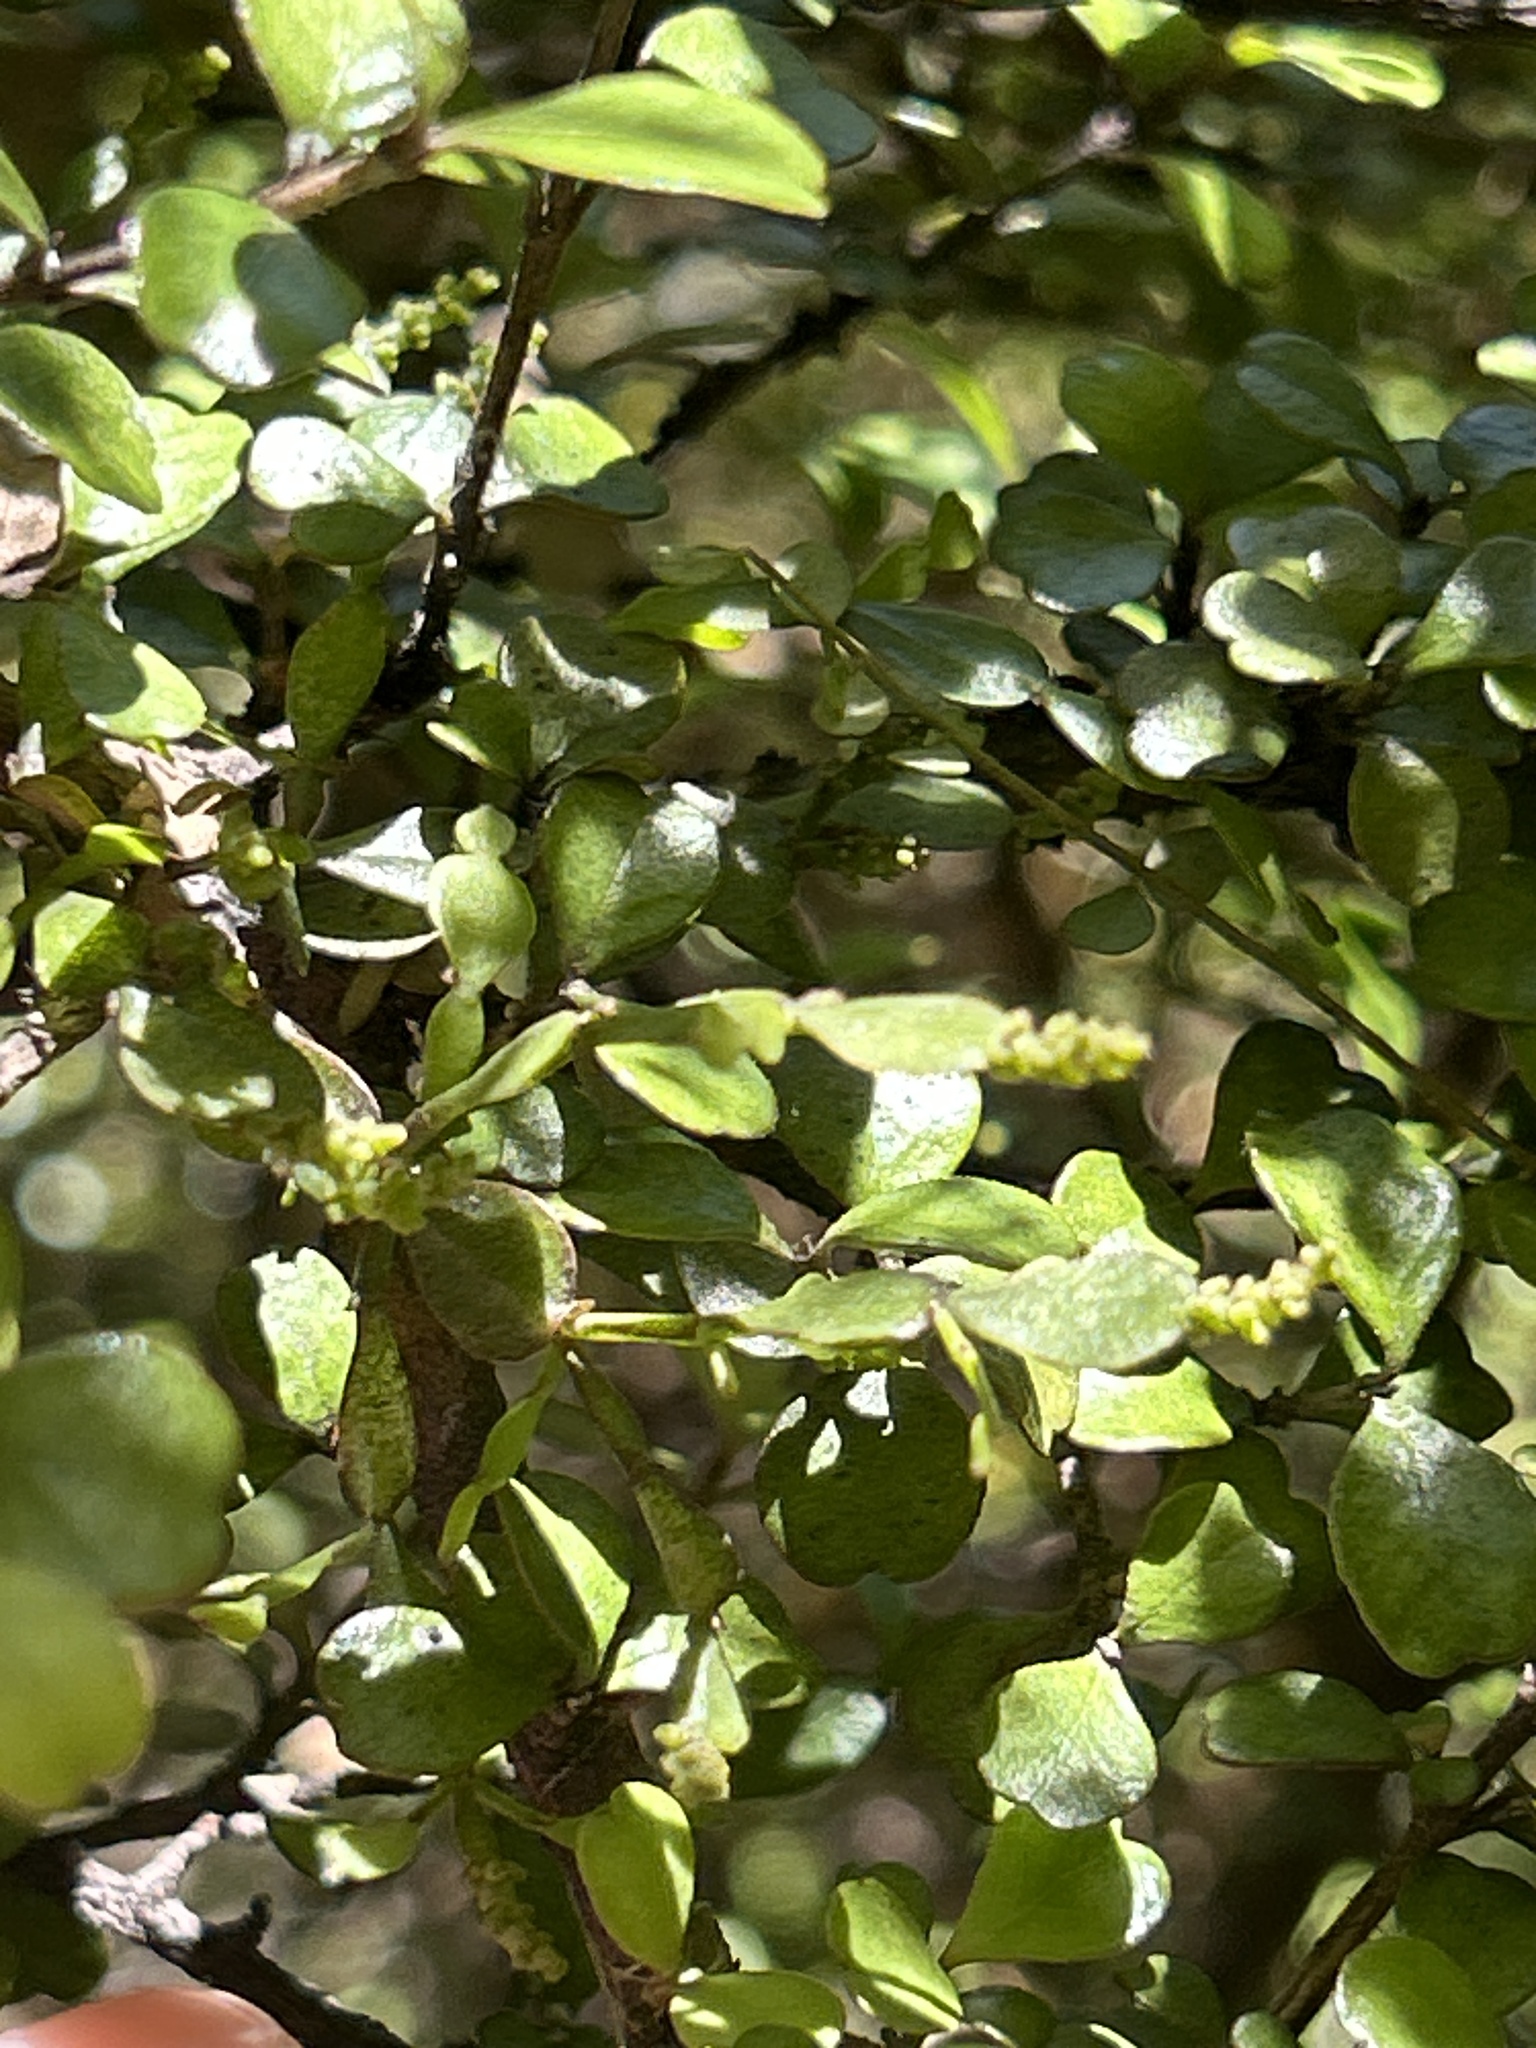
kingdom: Plantae
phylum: Tracheophyta
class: Magnoliopsida
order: Santalales
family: Viscaceae
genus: Korthalsella
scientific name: Korthalsella lindsayi
